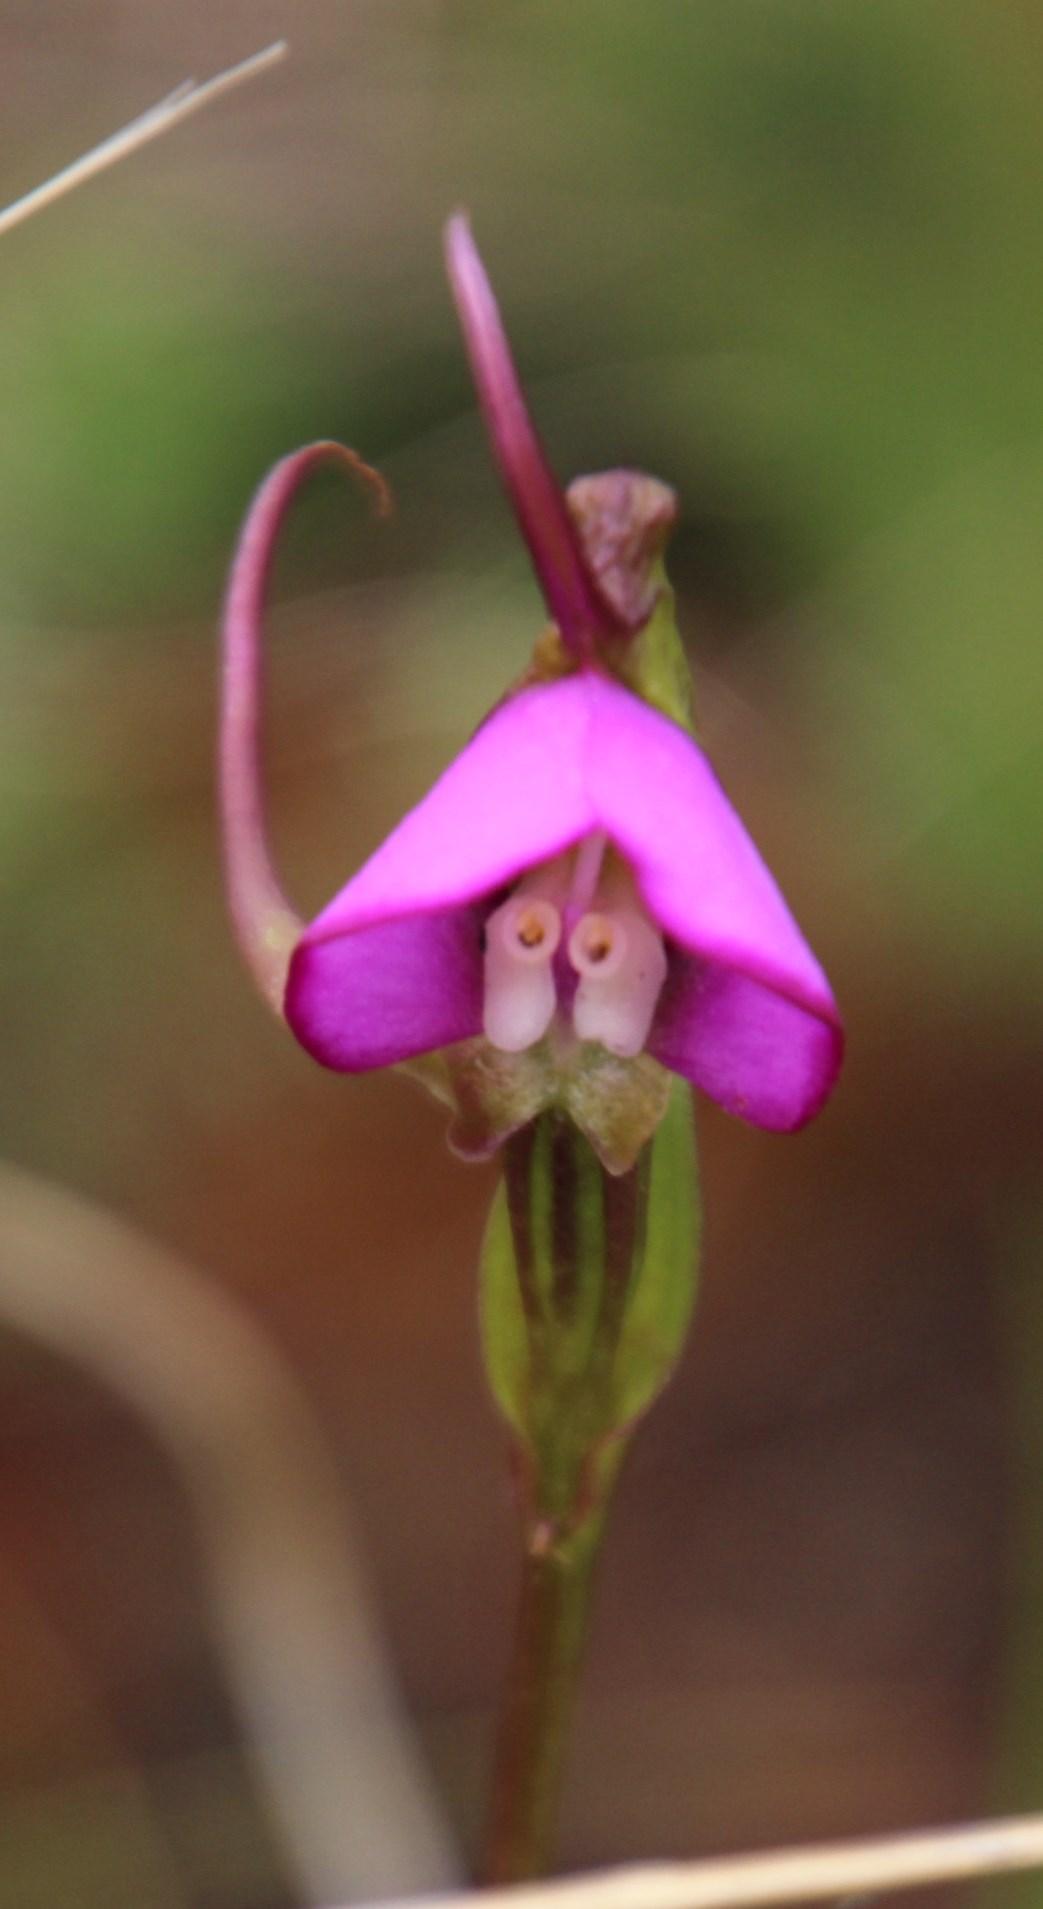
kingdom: Plantae
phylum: Tracheophyta
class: Liliopsida
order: Asparagales
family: Orchidaceae
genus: Disperis
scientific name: Disperis capensis
